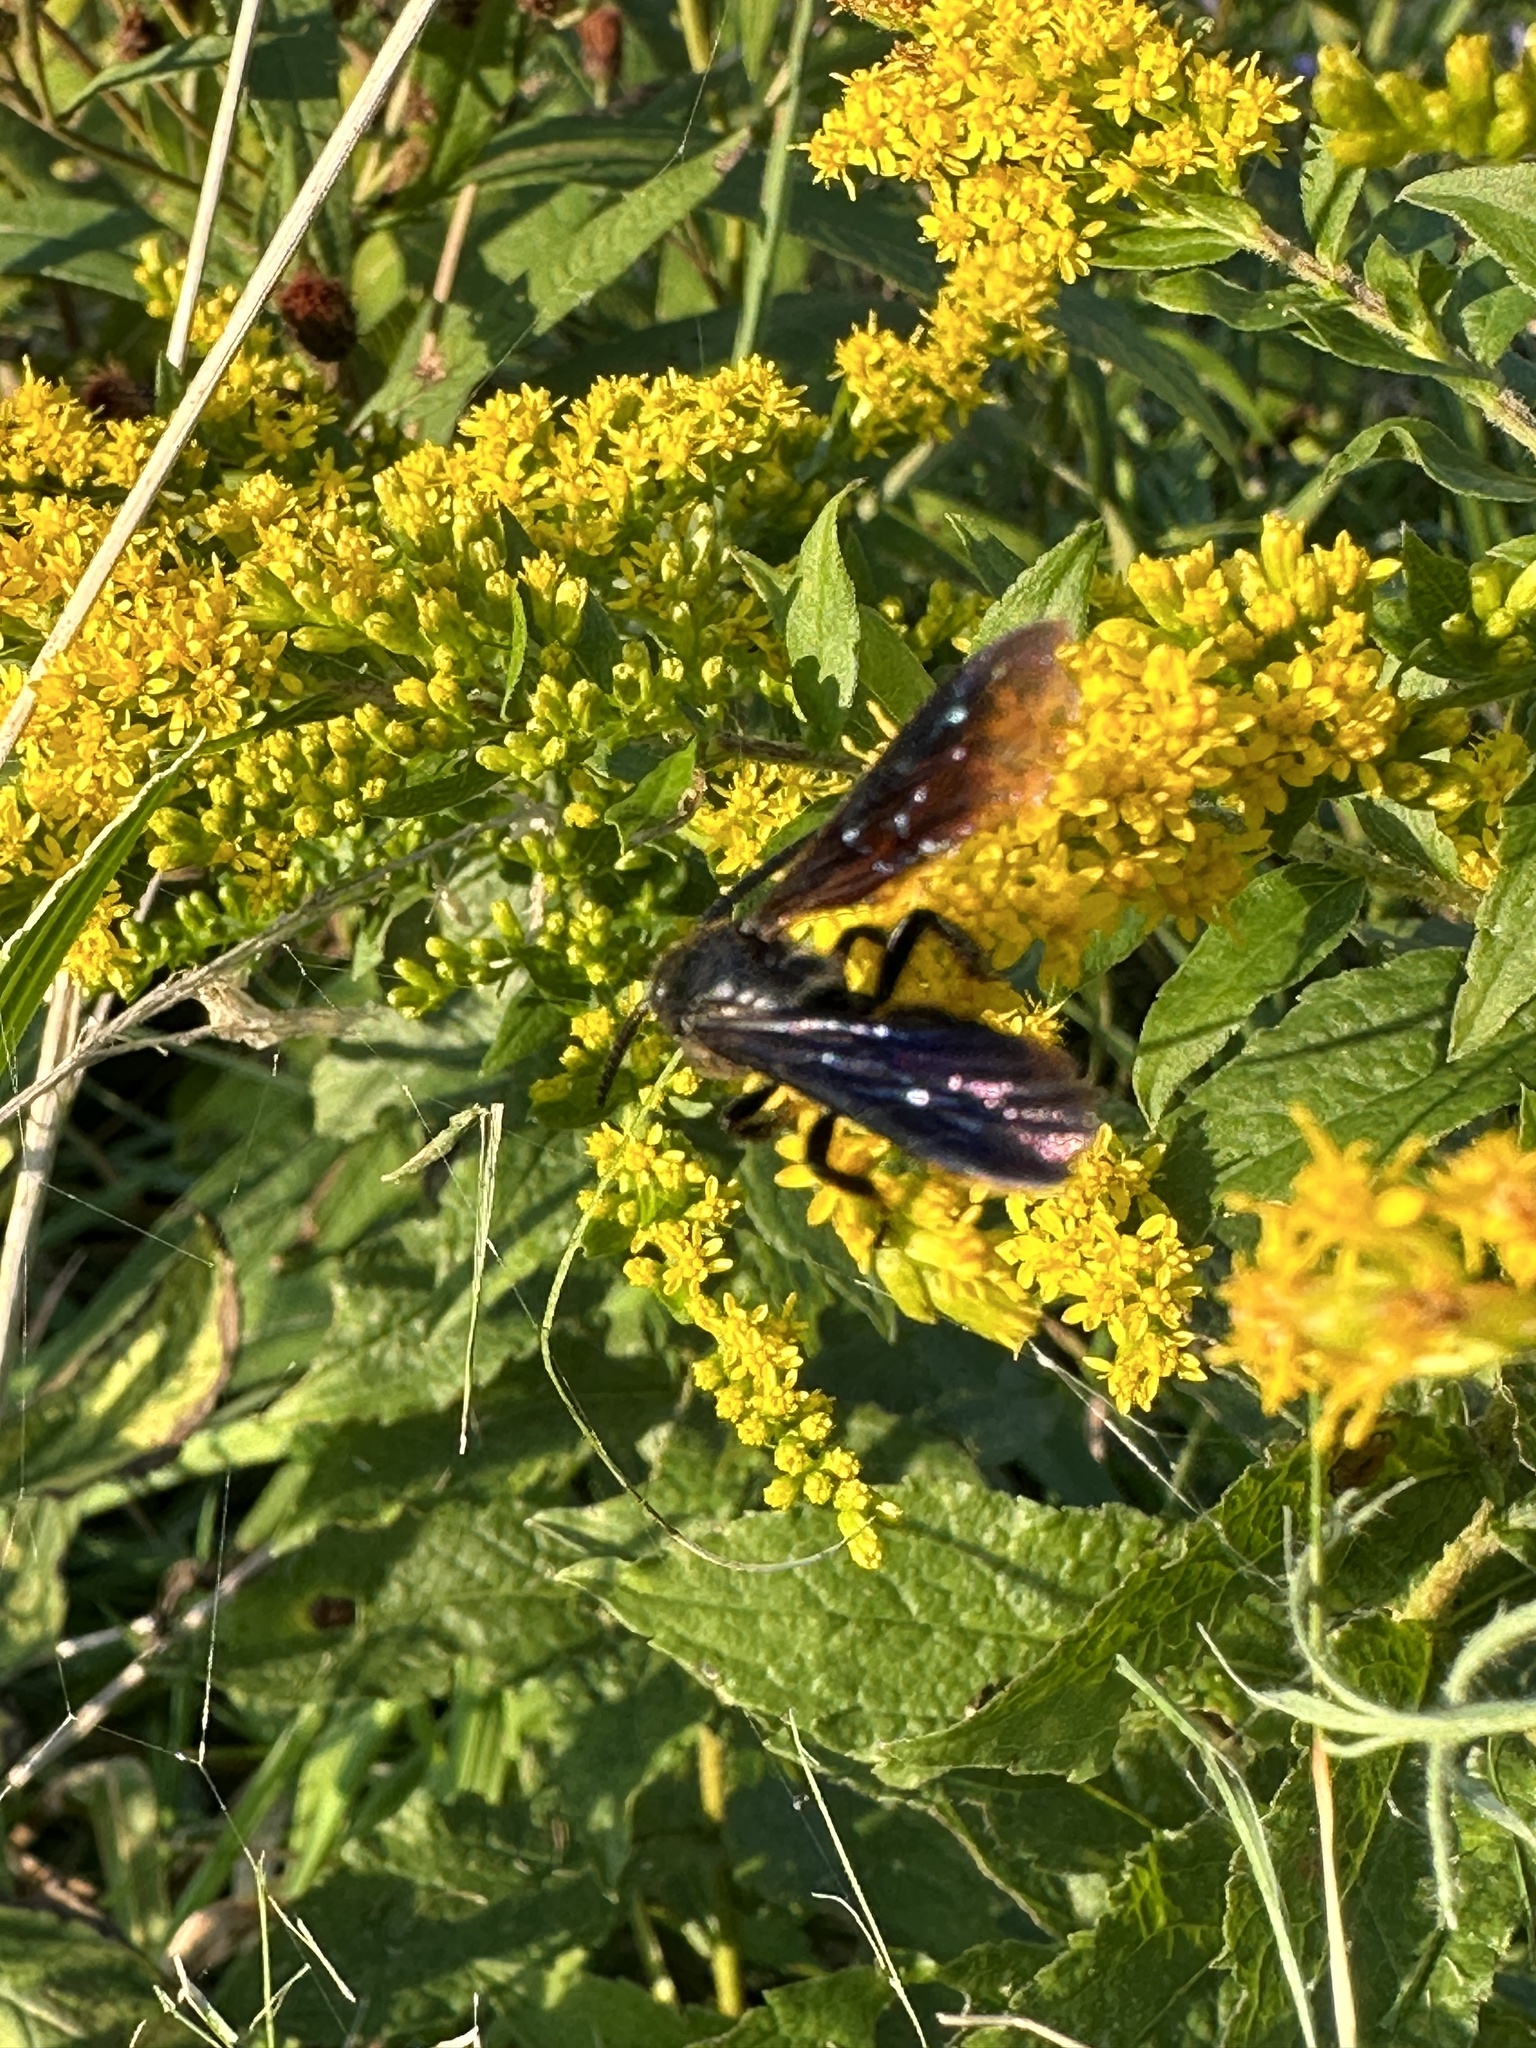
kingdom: Animalia
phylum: Arthropoda
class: Insecta
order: Hymenoptera
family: Scoliidae
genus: Scolia
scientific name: Scolia dubia
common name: Blue-winged scoliid wasp
